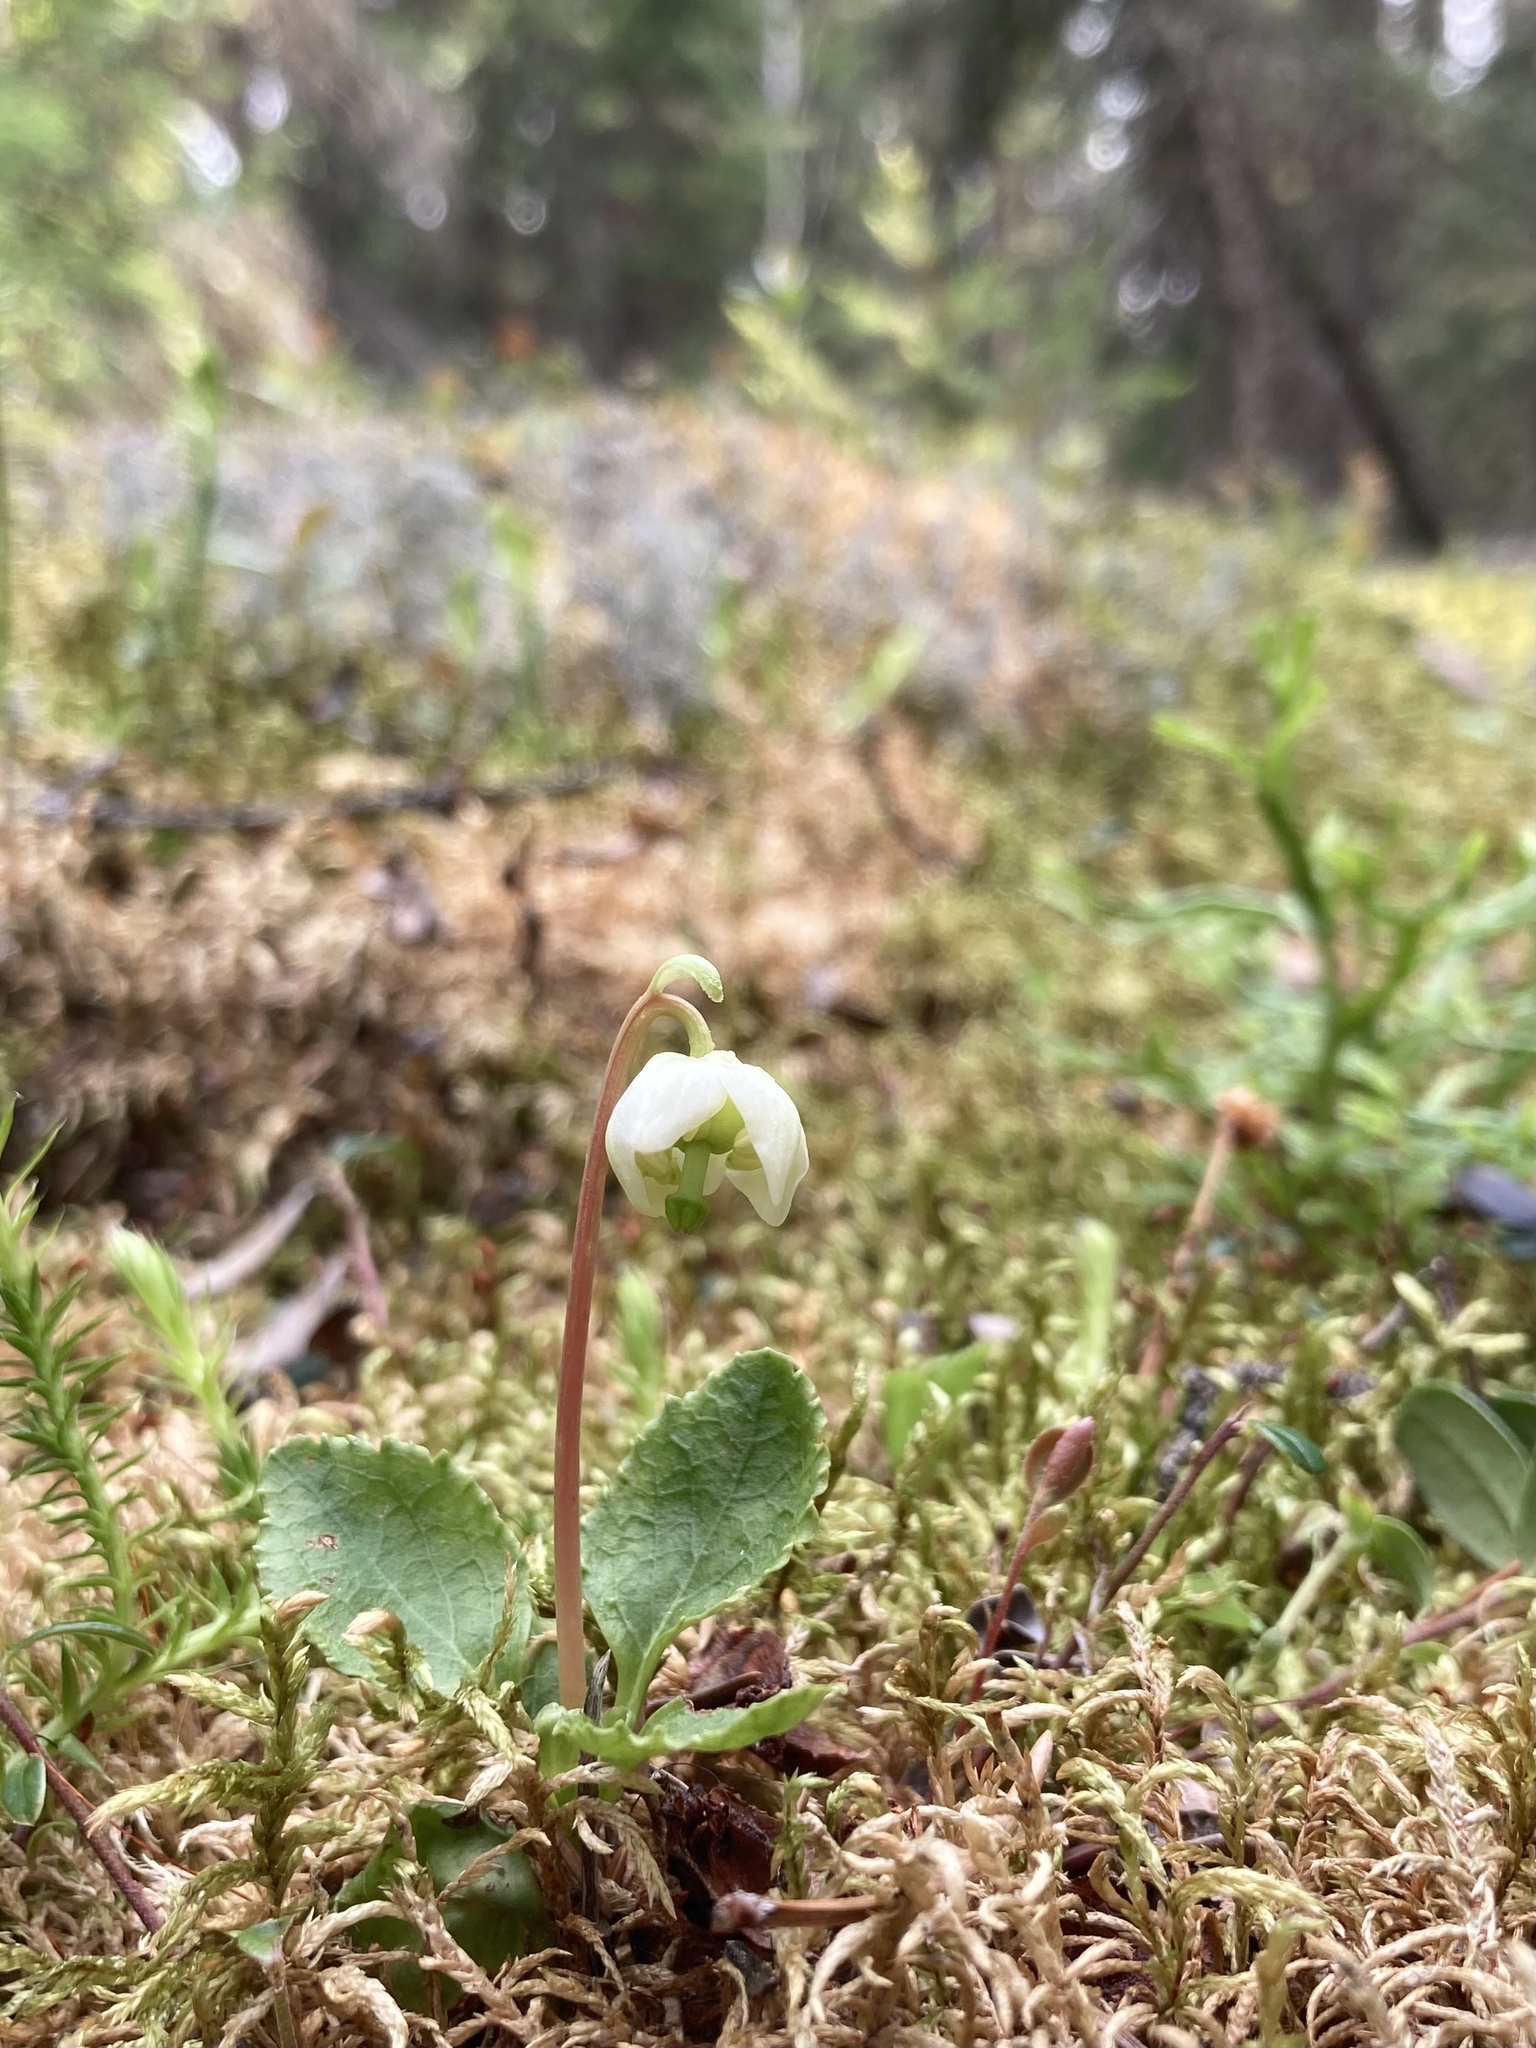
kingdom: Plantae
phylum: Tracheophyta
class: Magnoliopsida
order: Ericales
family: Ericaceae
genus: Moneses
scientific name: Moneses uniflora
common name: One-flowered wintergreen
